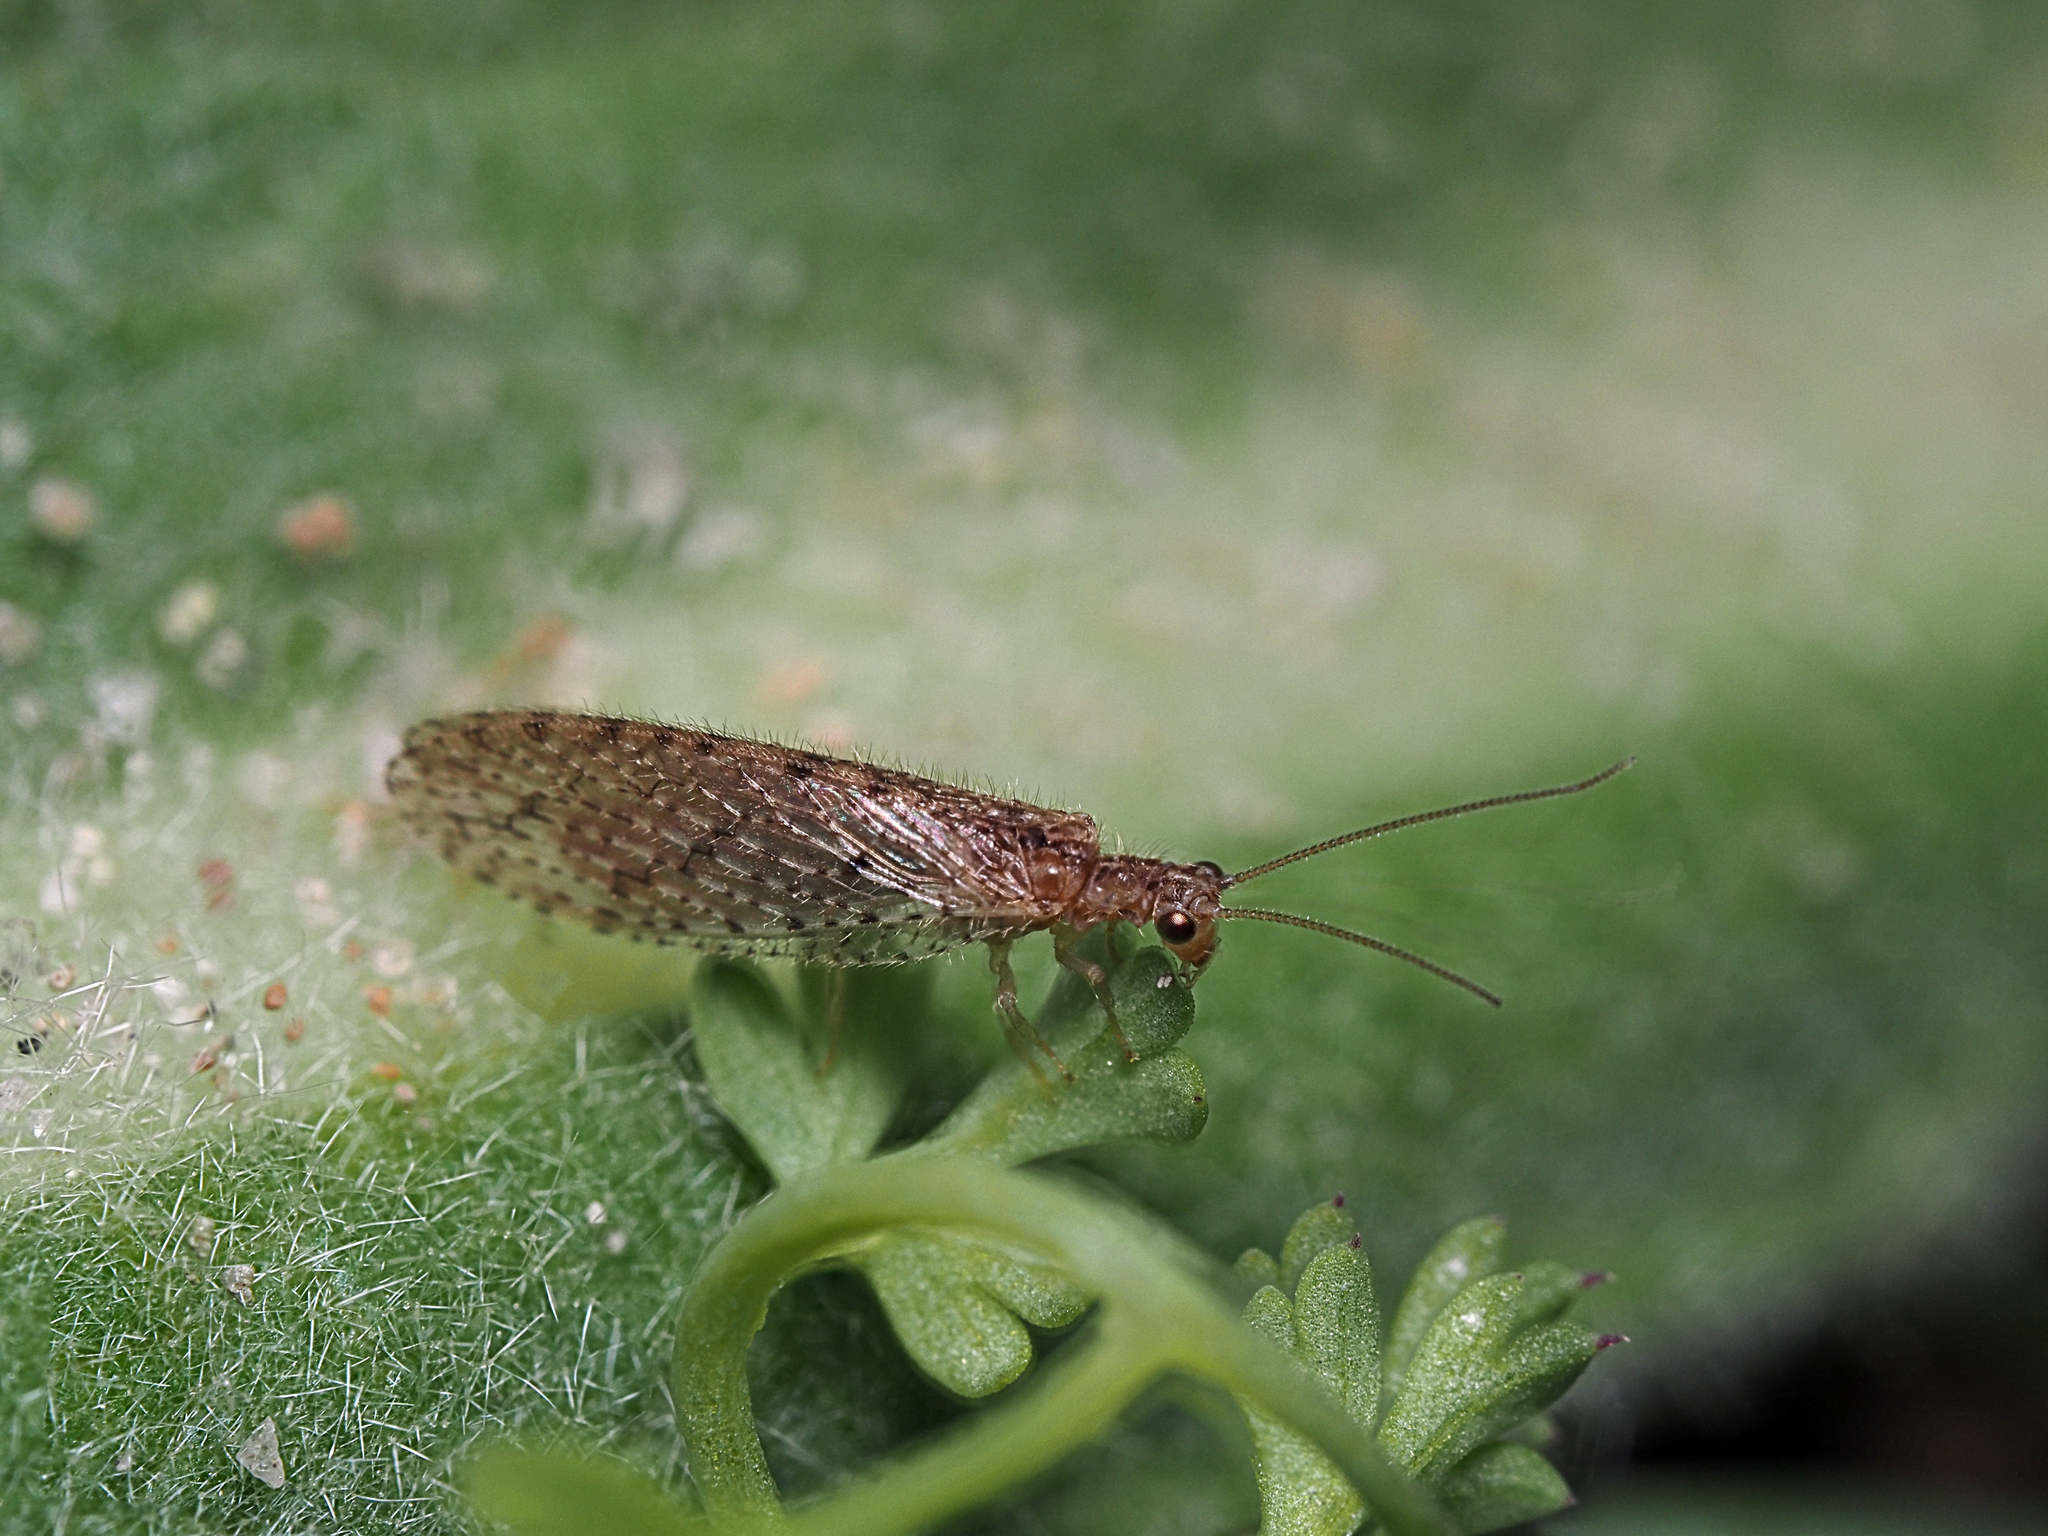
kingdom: Animalia
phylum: Arthropoda
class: Insecta
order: Neuroptera
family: Hemerobiidae
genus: Micromus
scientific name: Micromus tasmaniae
